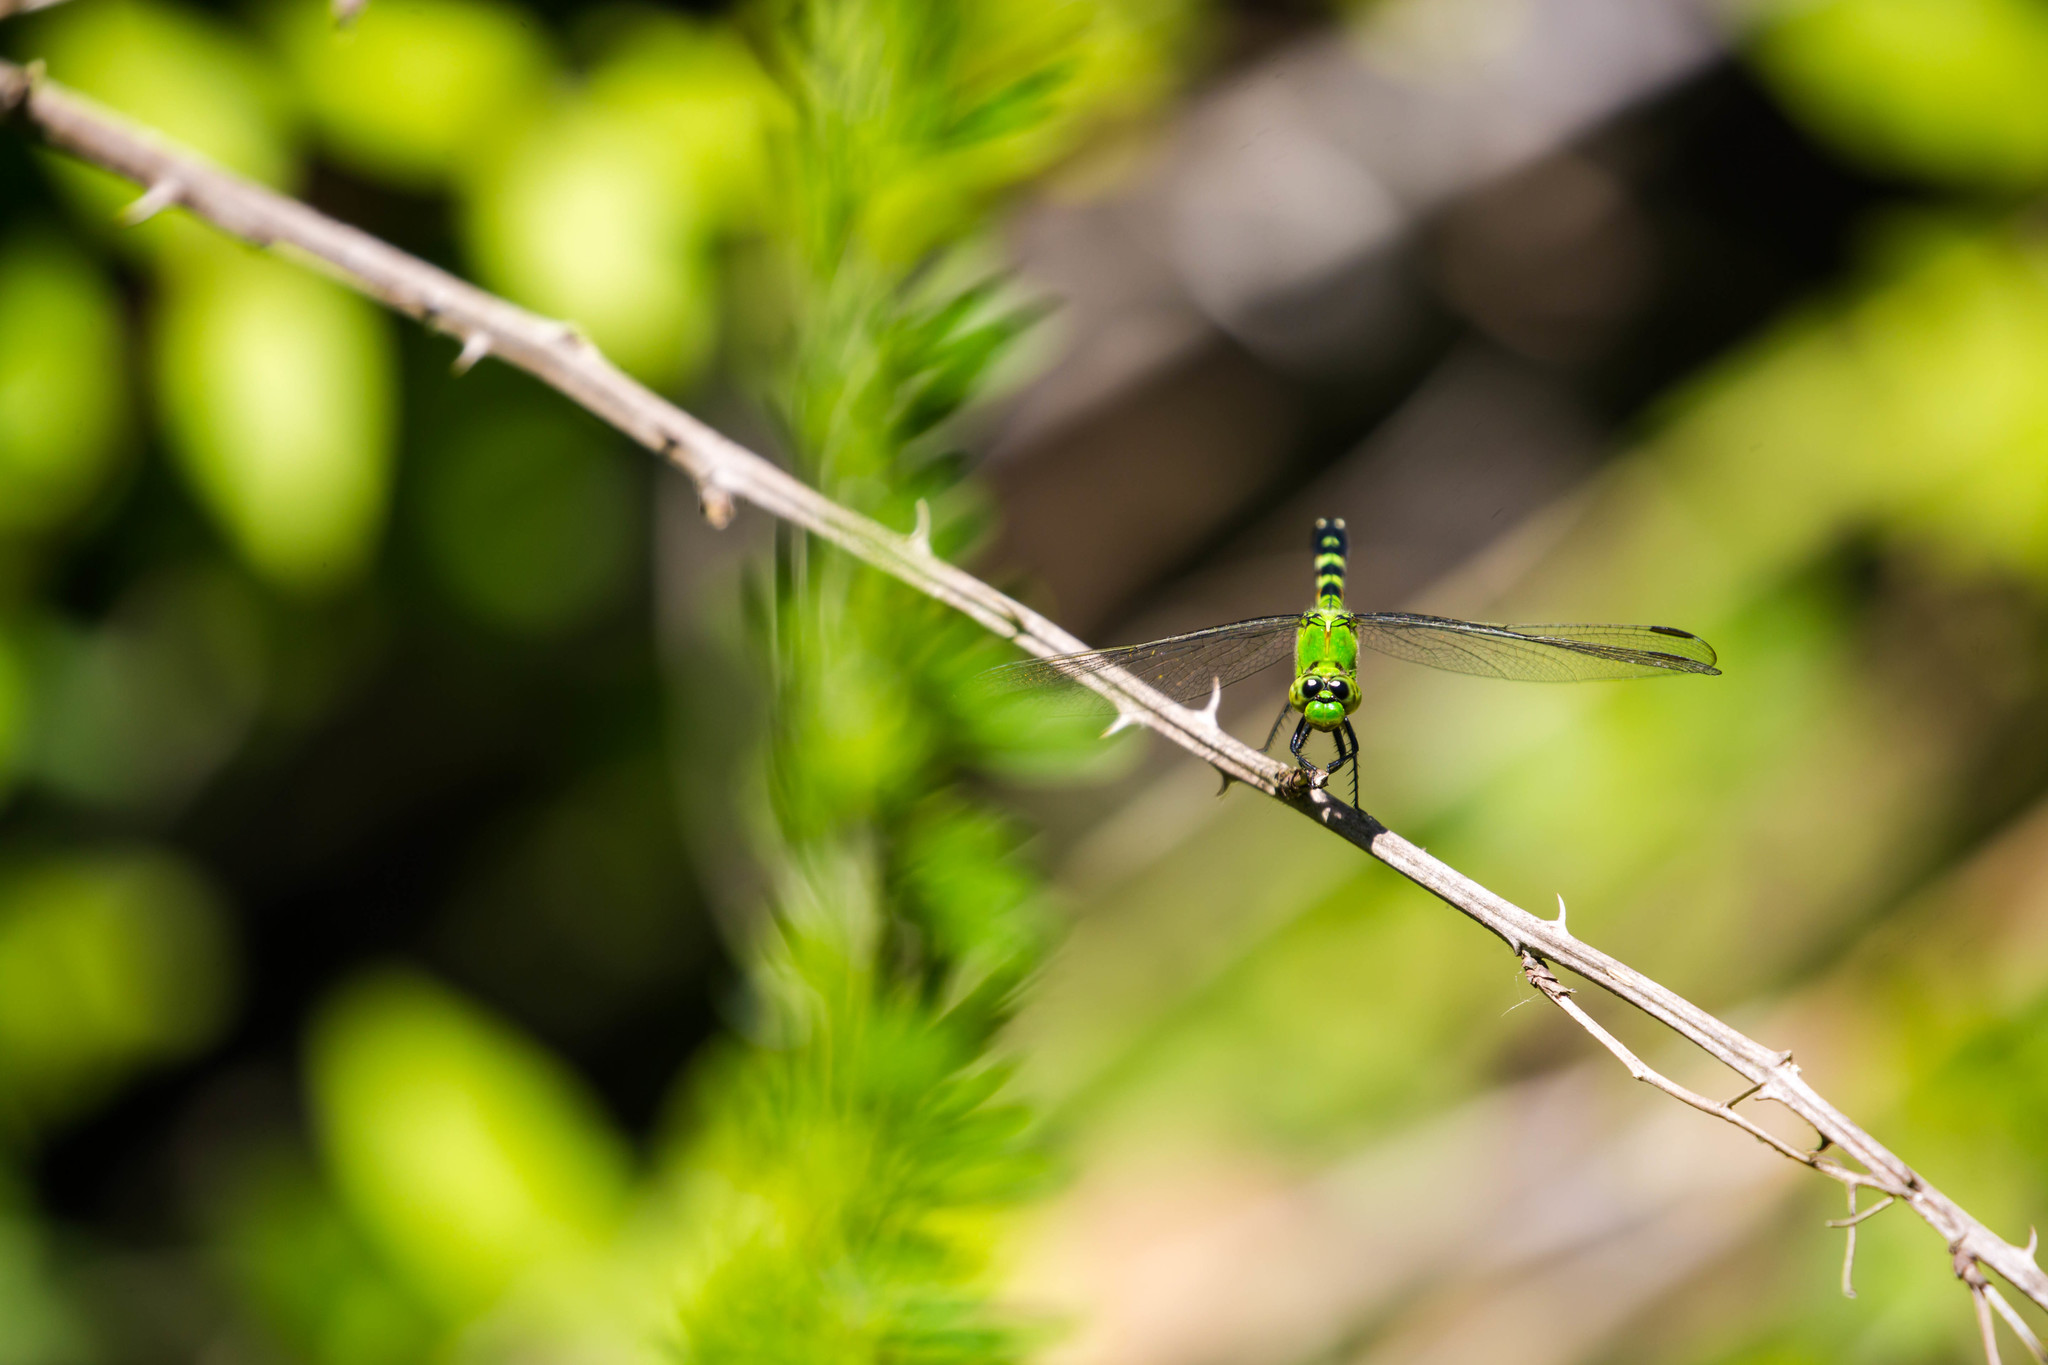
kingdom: Animalia
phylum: Arthropoda
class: Insecta
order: Odonata
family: Libellulidae
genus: Erythemis
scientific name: Erythemis simplicicollis
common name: Eastern pondhawk
